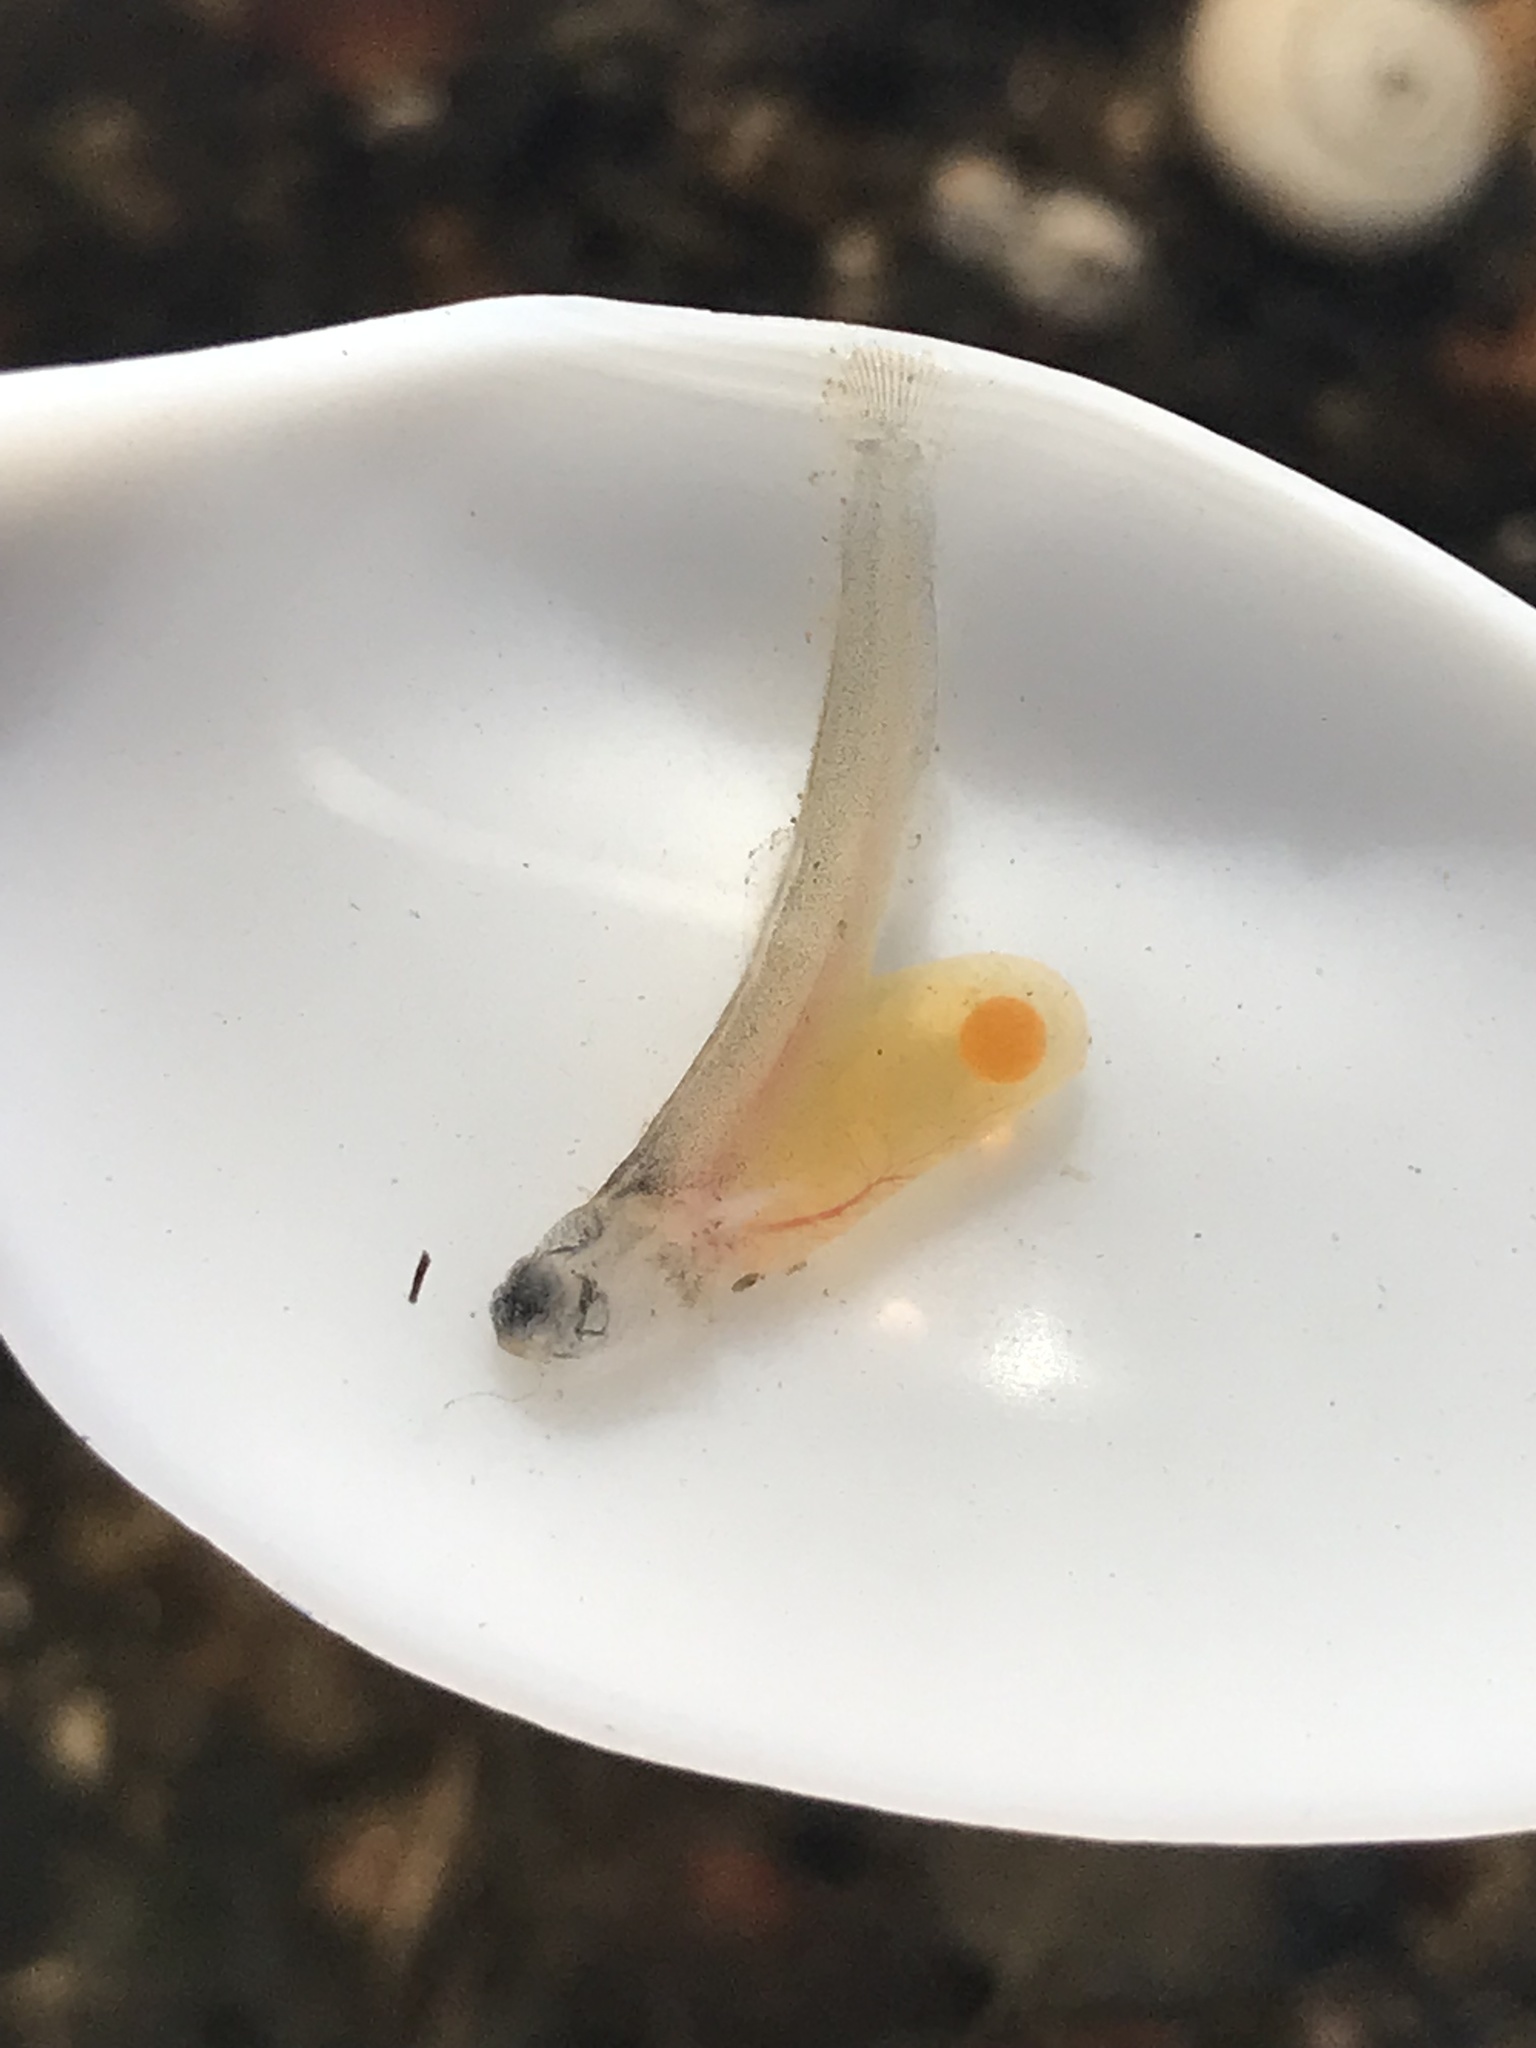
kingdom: Animalia
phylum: Chordata
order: Salmoniformes
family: Salmonidae
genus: Salmo
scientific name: Salmo trutta
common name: Brown trout
